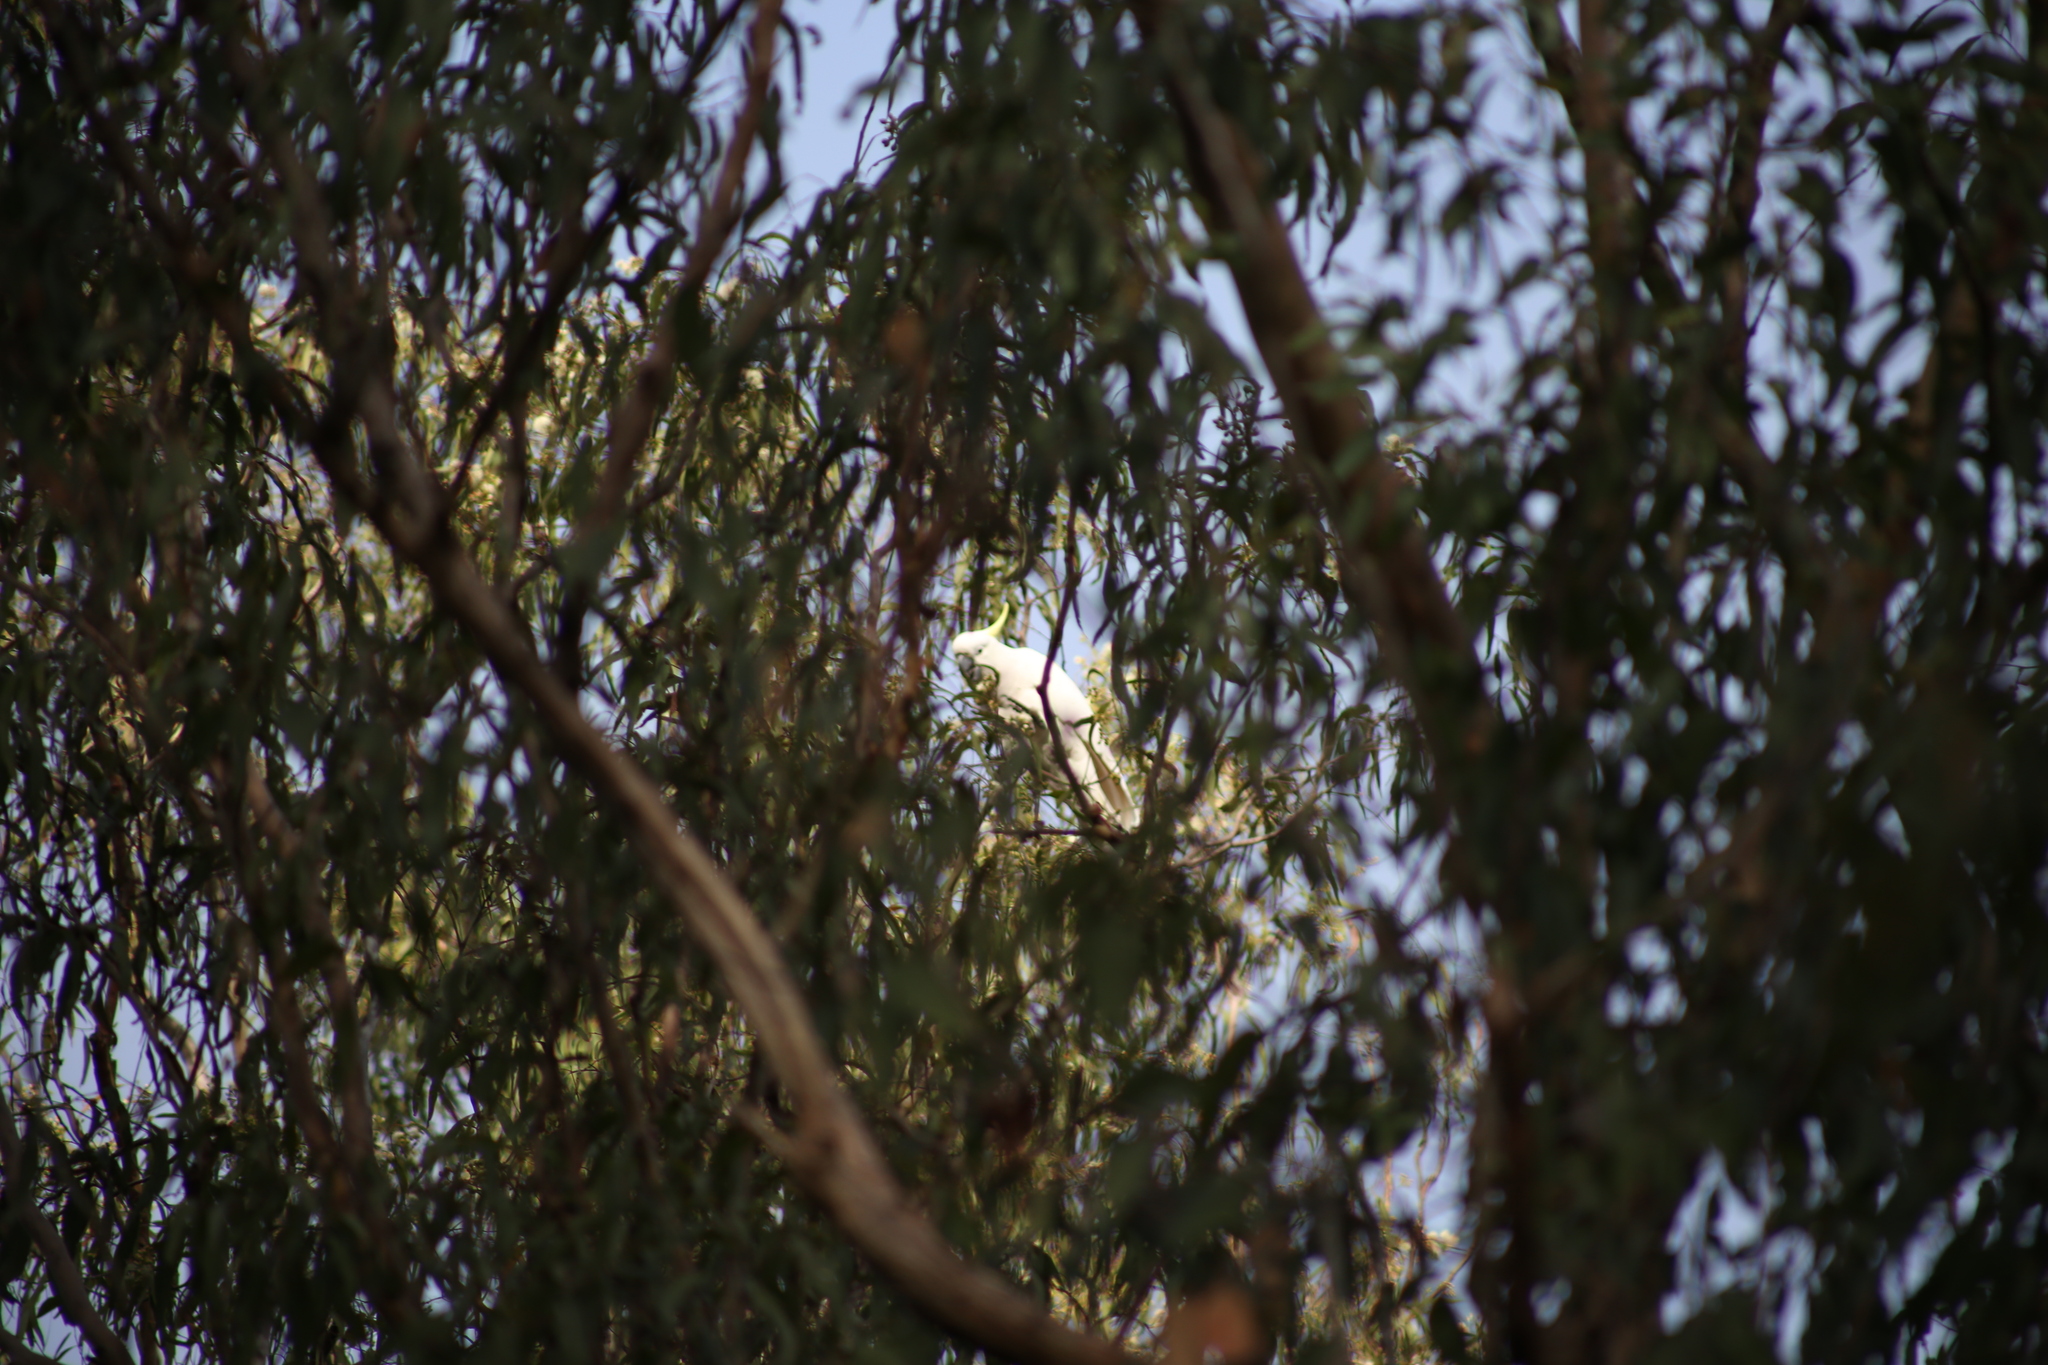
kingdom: Animalia
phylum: Chordata
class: Aves
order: Psittaciformes
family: Psittacidae
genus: Cacatua
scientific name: Cacatua galerita
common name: Sulphur-crested cockatoo
